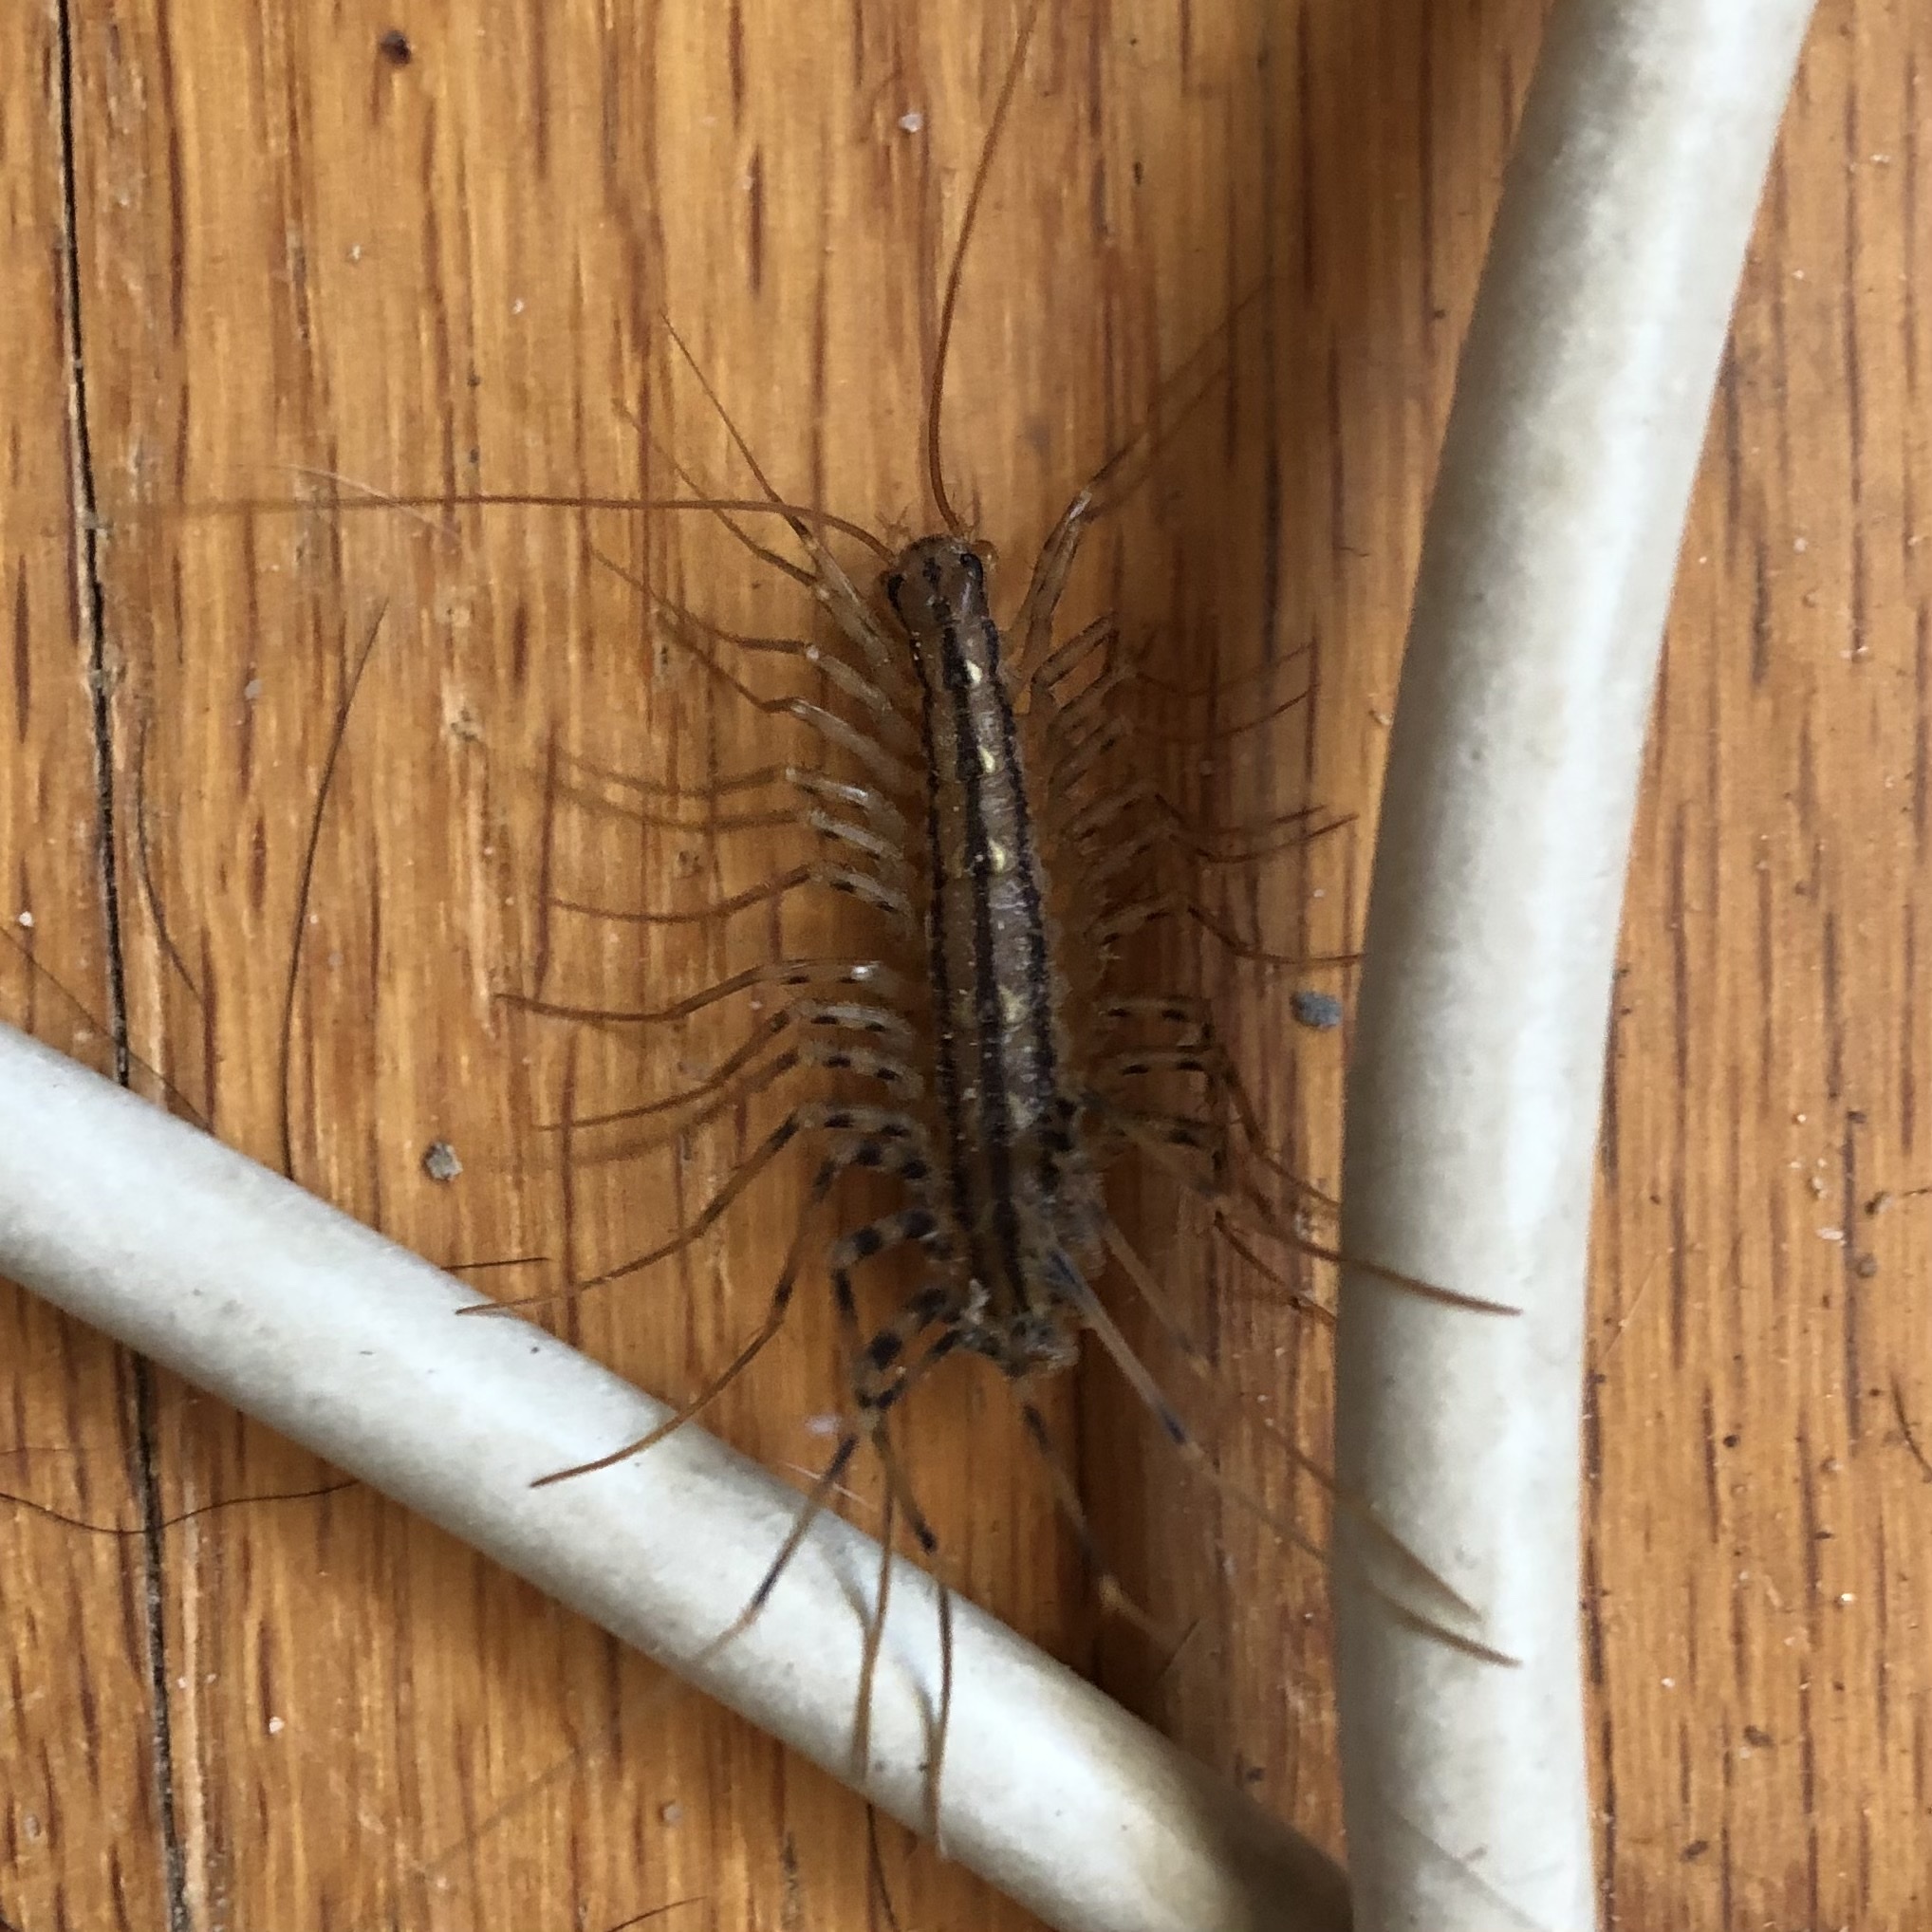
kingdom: Animalia
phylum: Arthropoda
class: Chilopoda
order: Scutigeromorpha
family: Scutigeridae
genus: Scutigera
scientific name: Scutigera coleoptrata
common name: House centipede
